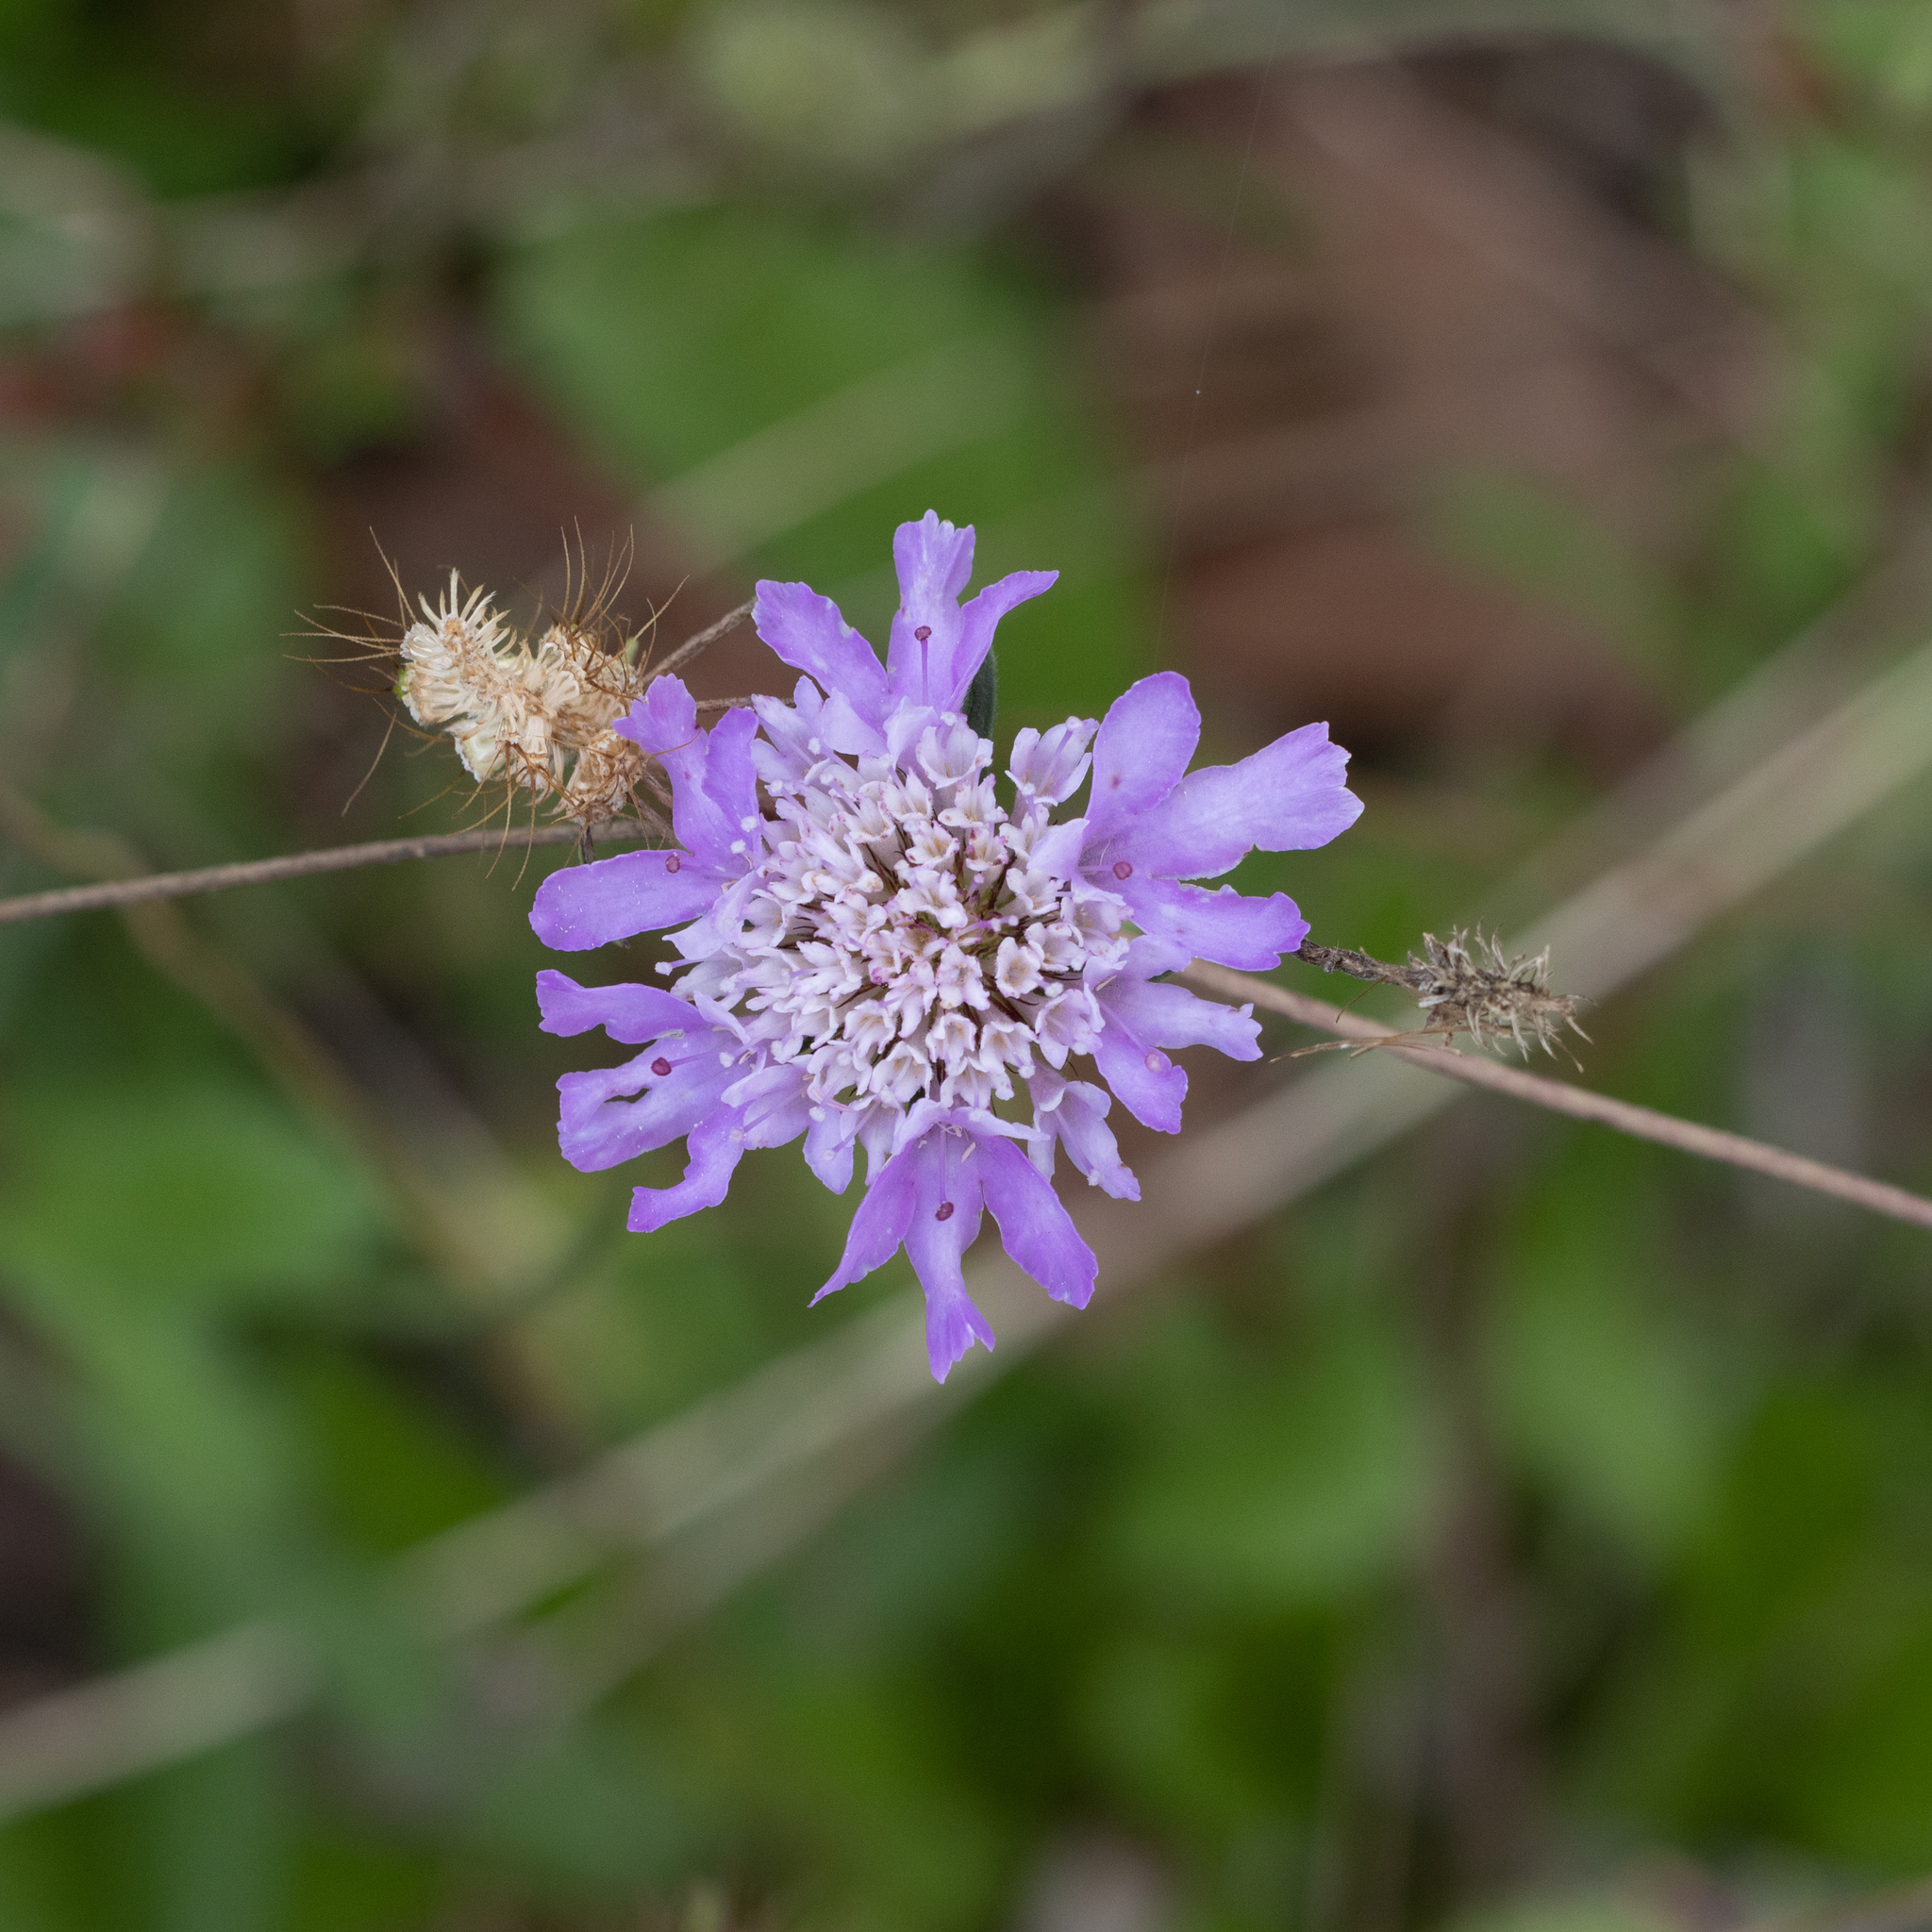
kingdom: Plantae
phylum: Tracheophyta
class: Magnoliopsida
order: Dipsacales
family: Caprifoliaceae
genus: Sixalix
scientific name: Sixalix atropurpurea
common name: Sweet scabious
